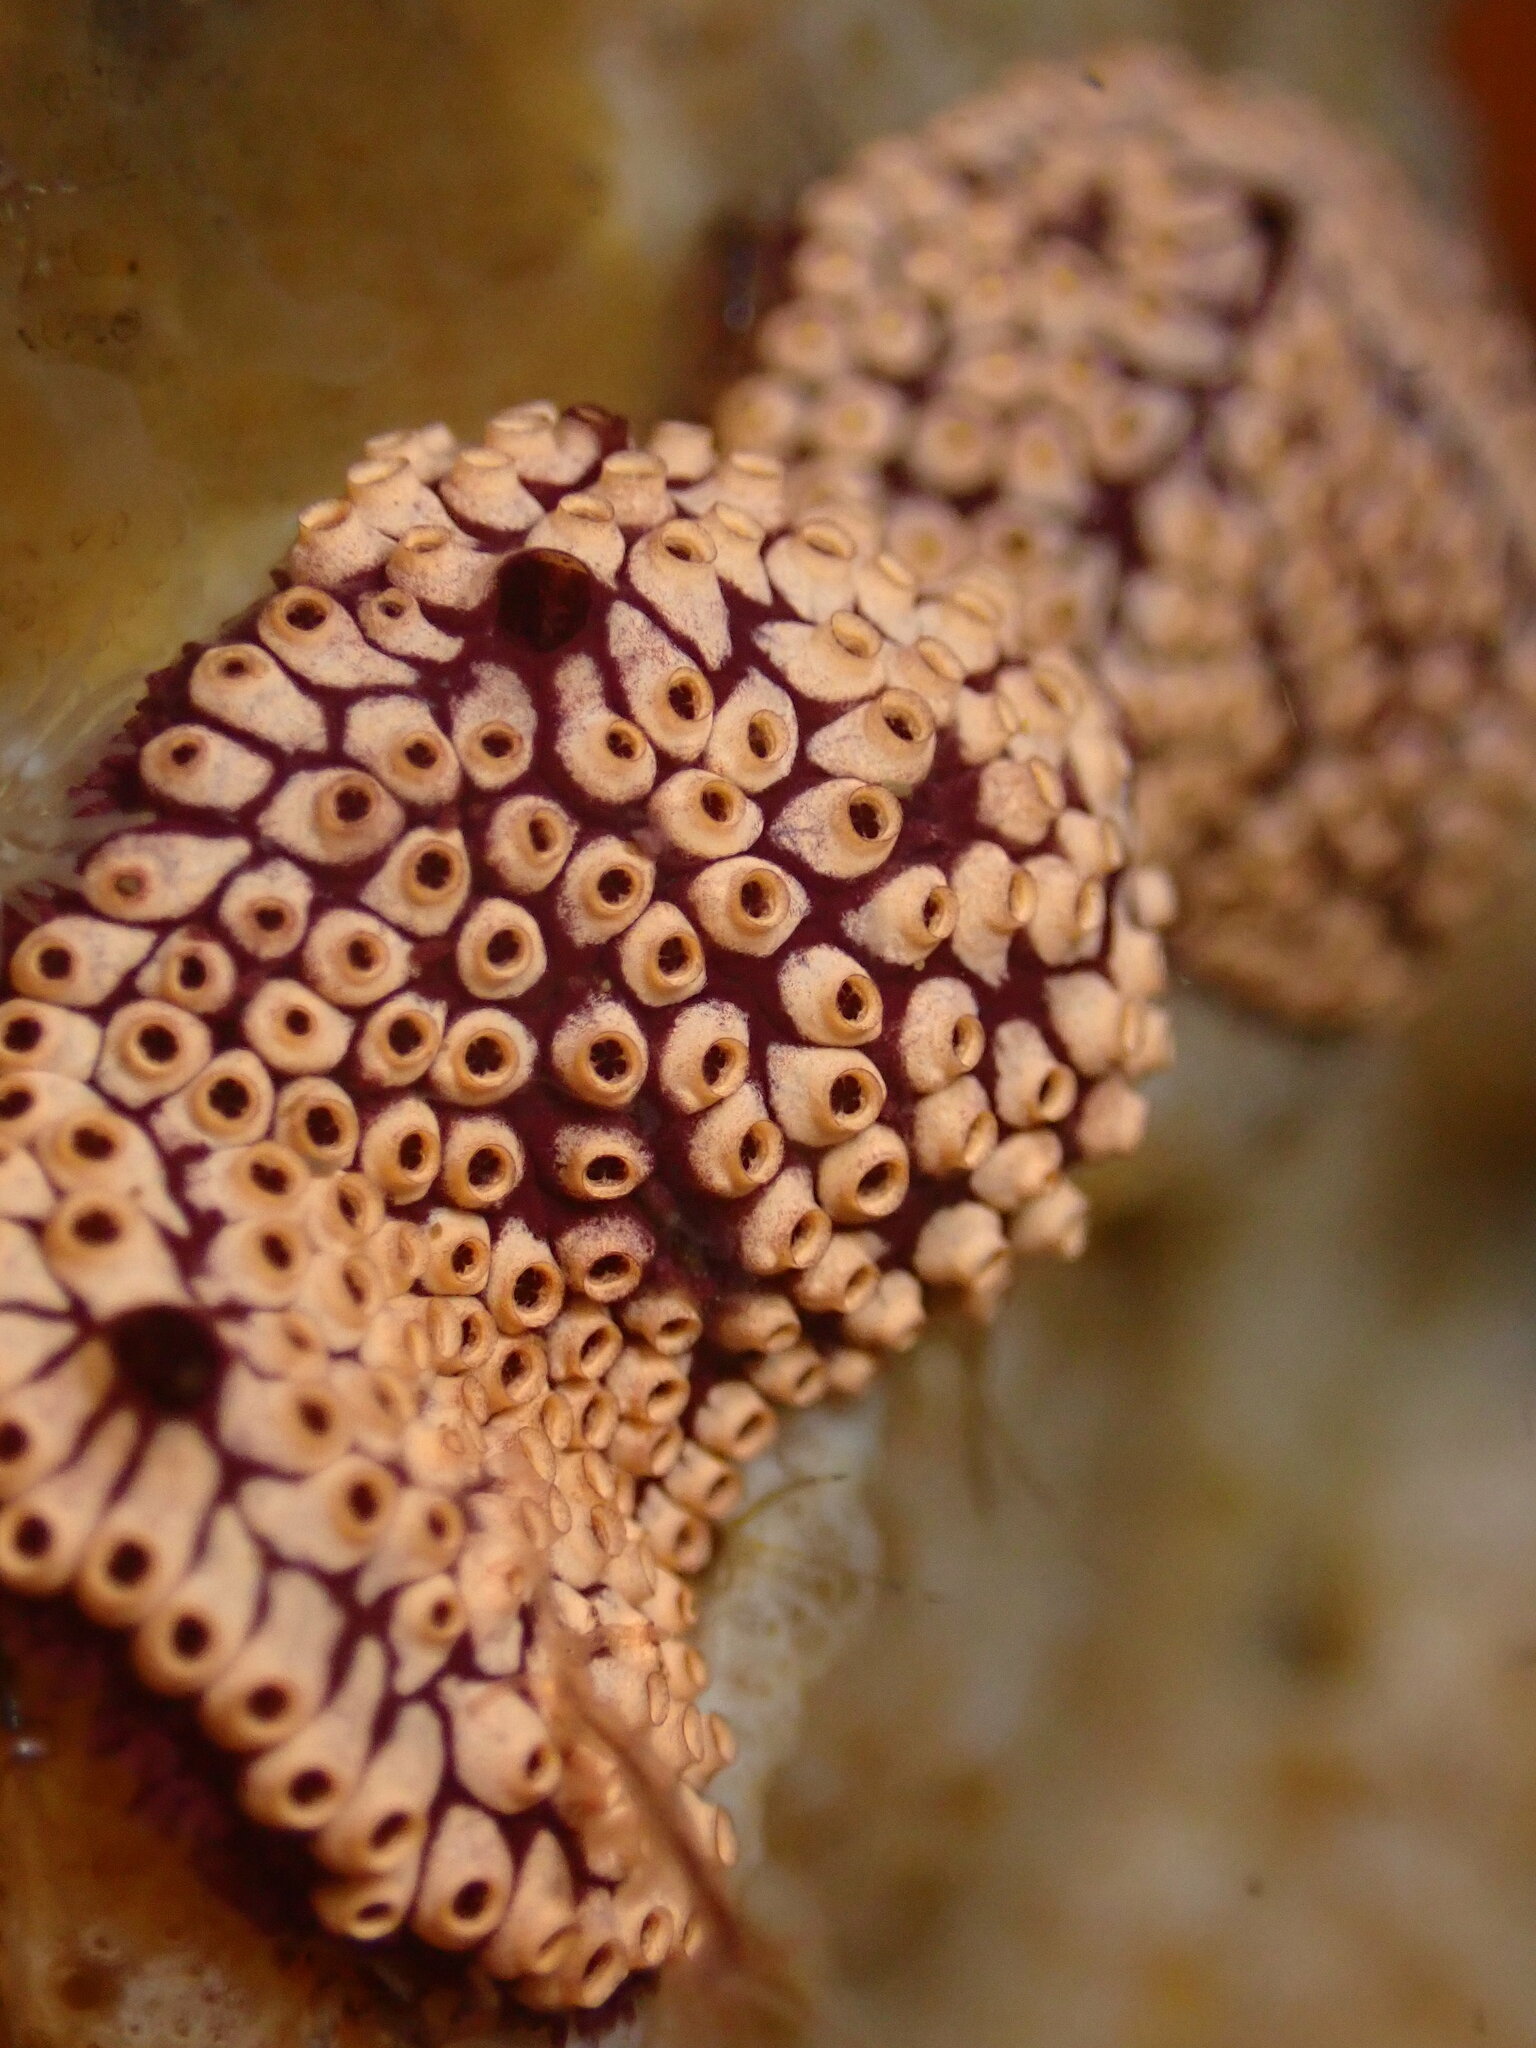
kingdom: Animalia
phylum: Chordata
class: Ascidiacea
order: Stolidobranchia
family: Styelidae
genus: Botrylloides
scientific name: Botrylloides diegensis
